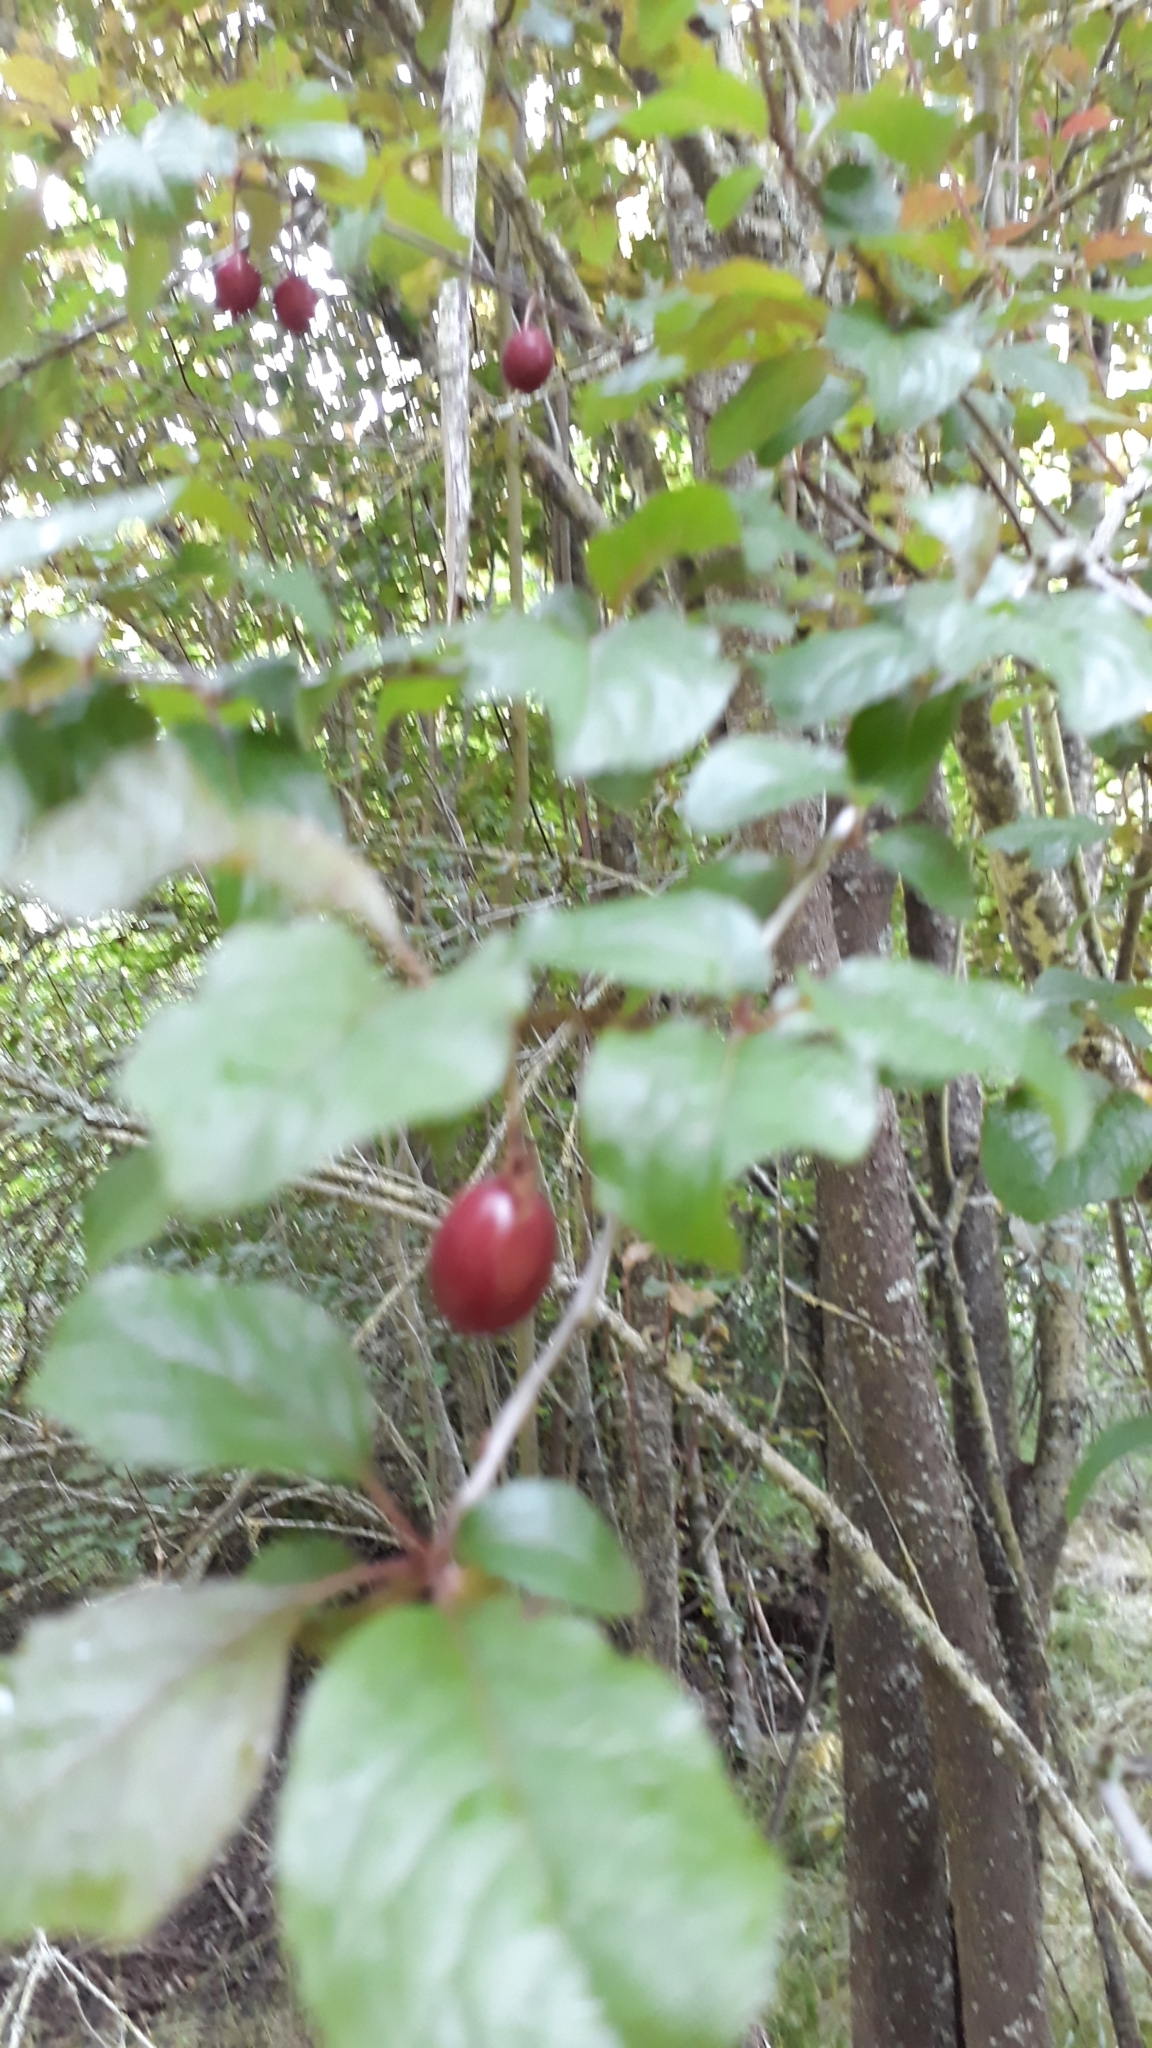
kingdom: Plantae
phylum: Tracheophyta
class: Magnoliopsida
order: Rosales
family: Rosaceae
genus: Prunus
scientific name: Prunus domestica
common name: Wild plum
